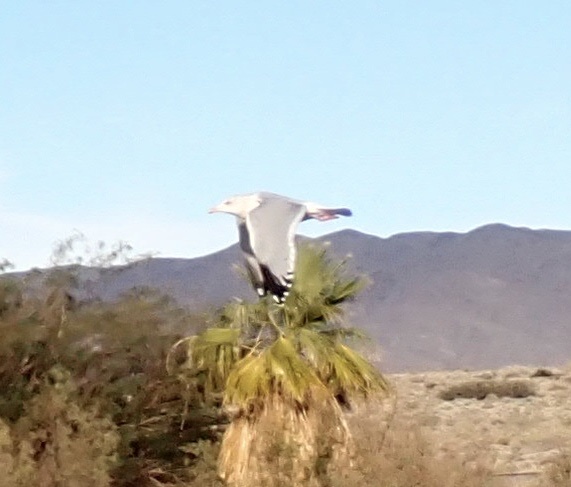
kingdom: Animalia
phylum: Chordata
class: Aves
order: Charadriiformes
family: Laridae
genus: Larus
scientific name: Larus argentatus
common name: Herring gull
